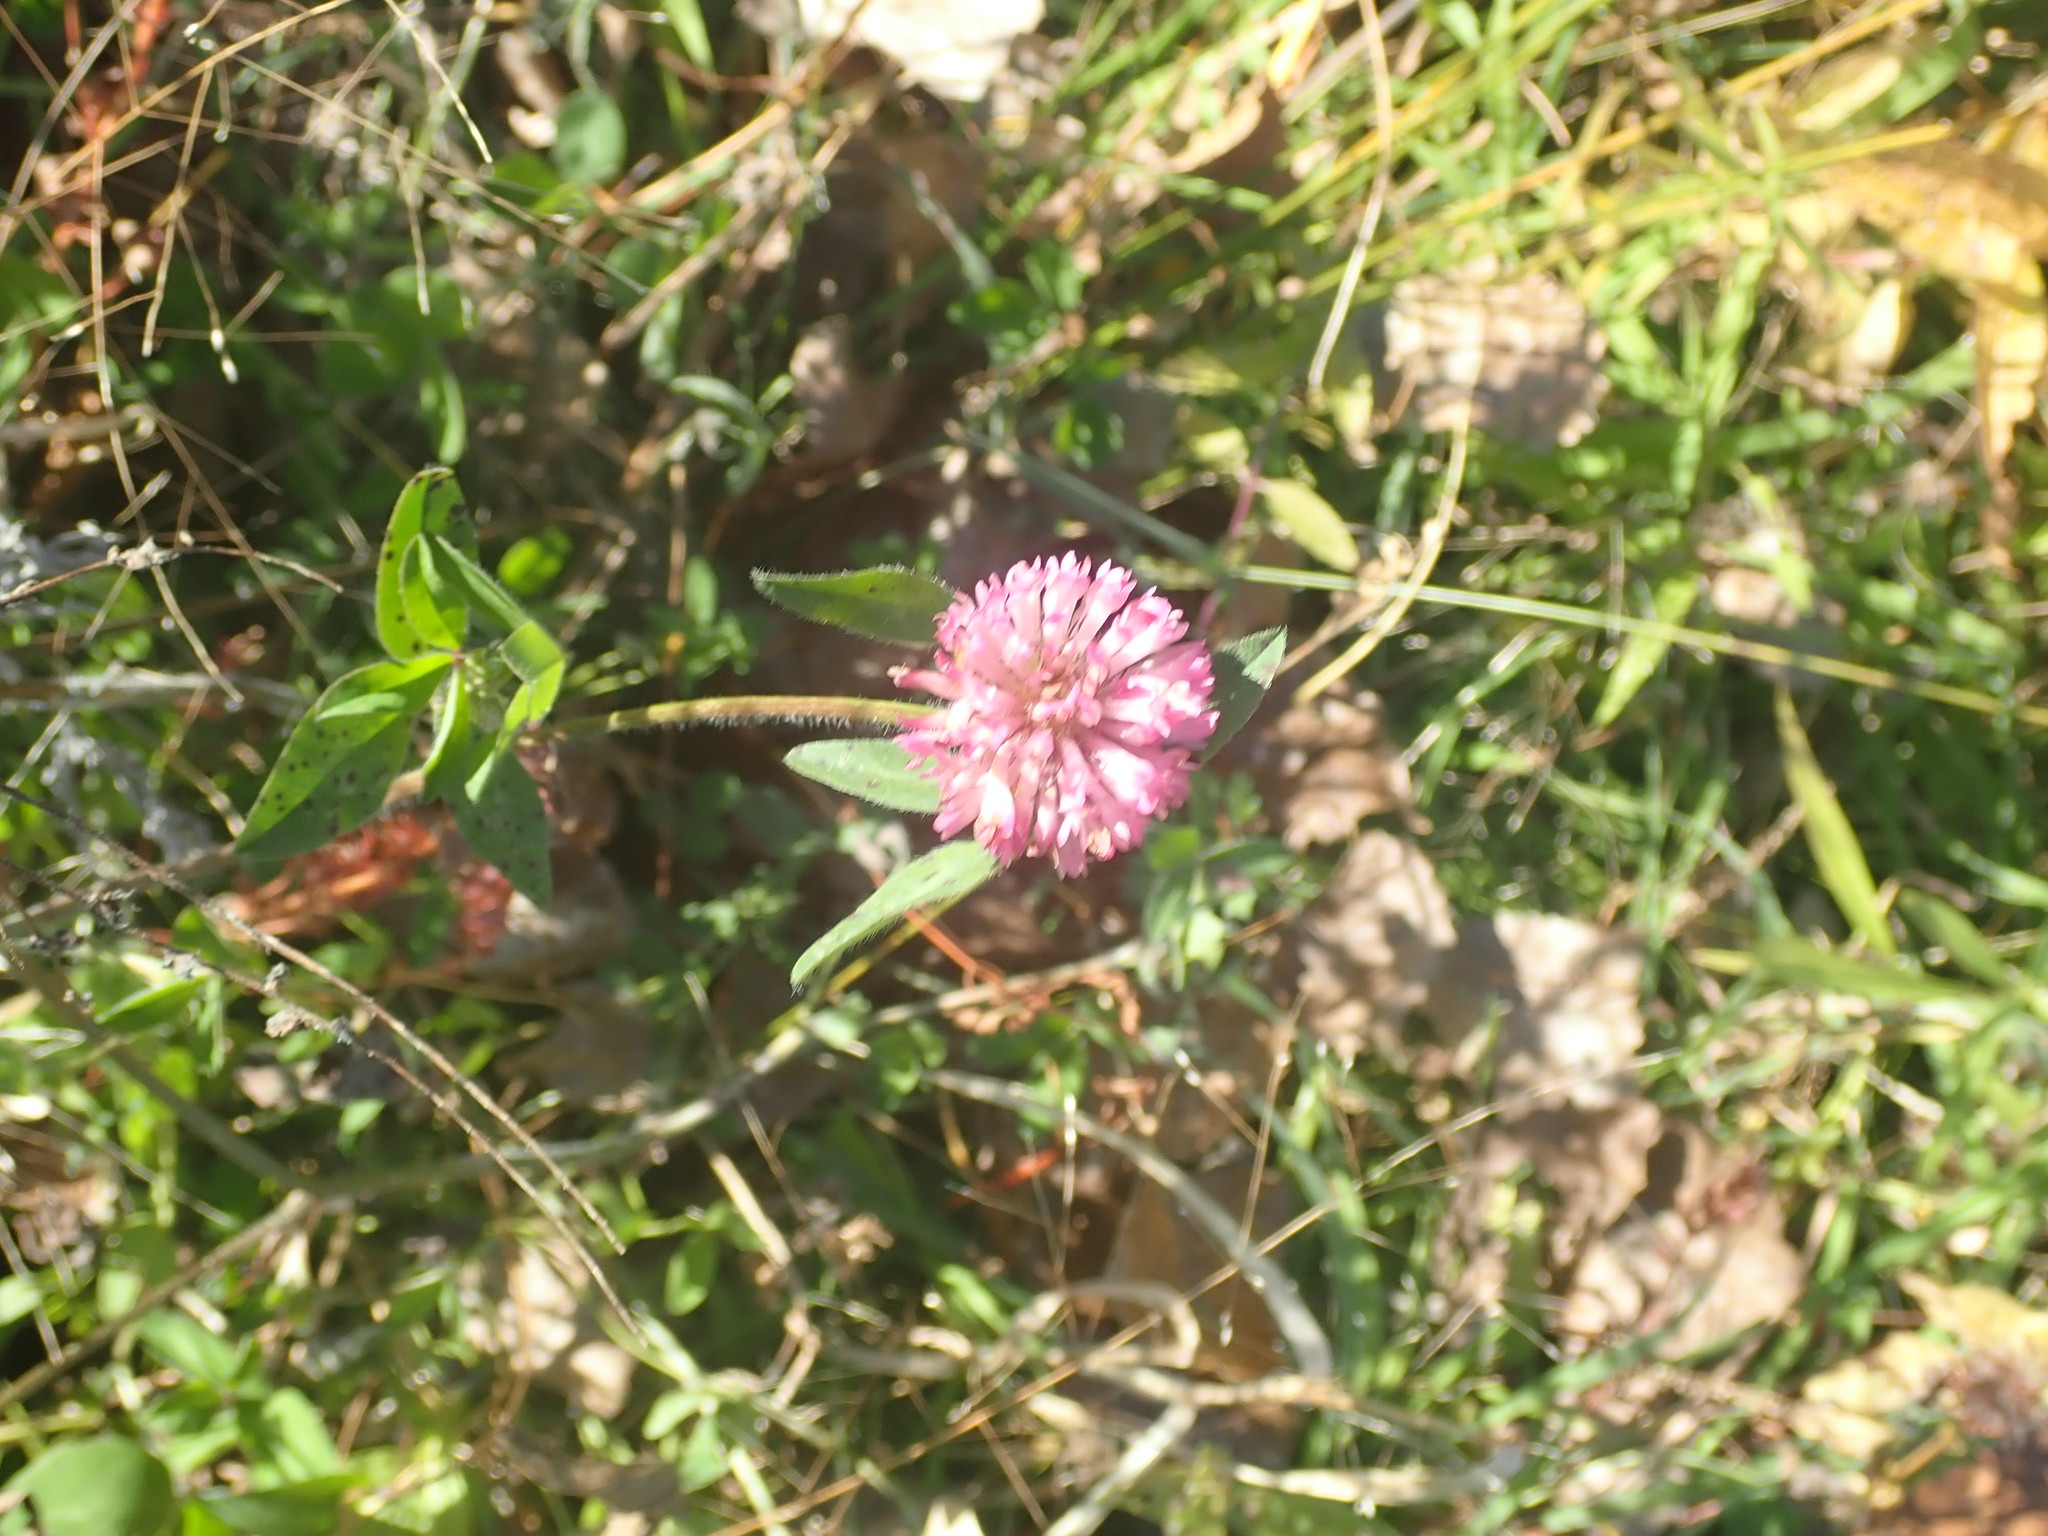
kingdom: Plantae
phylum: Tracheophyta
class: Magnoliopsida
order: Fabales
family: Fabaceae
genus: Trifolium
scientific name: Trifolium pratense
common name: Red clover
